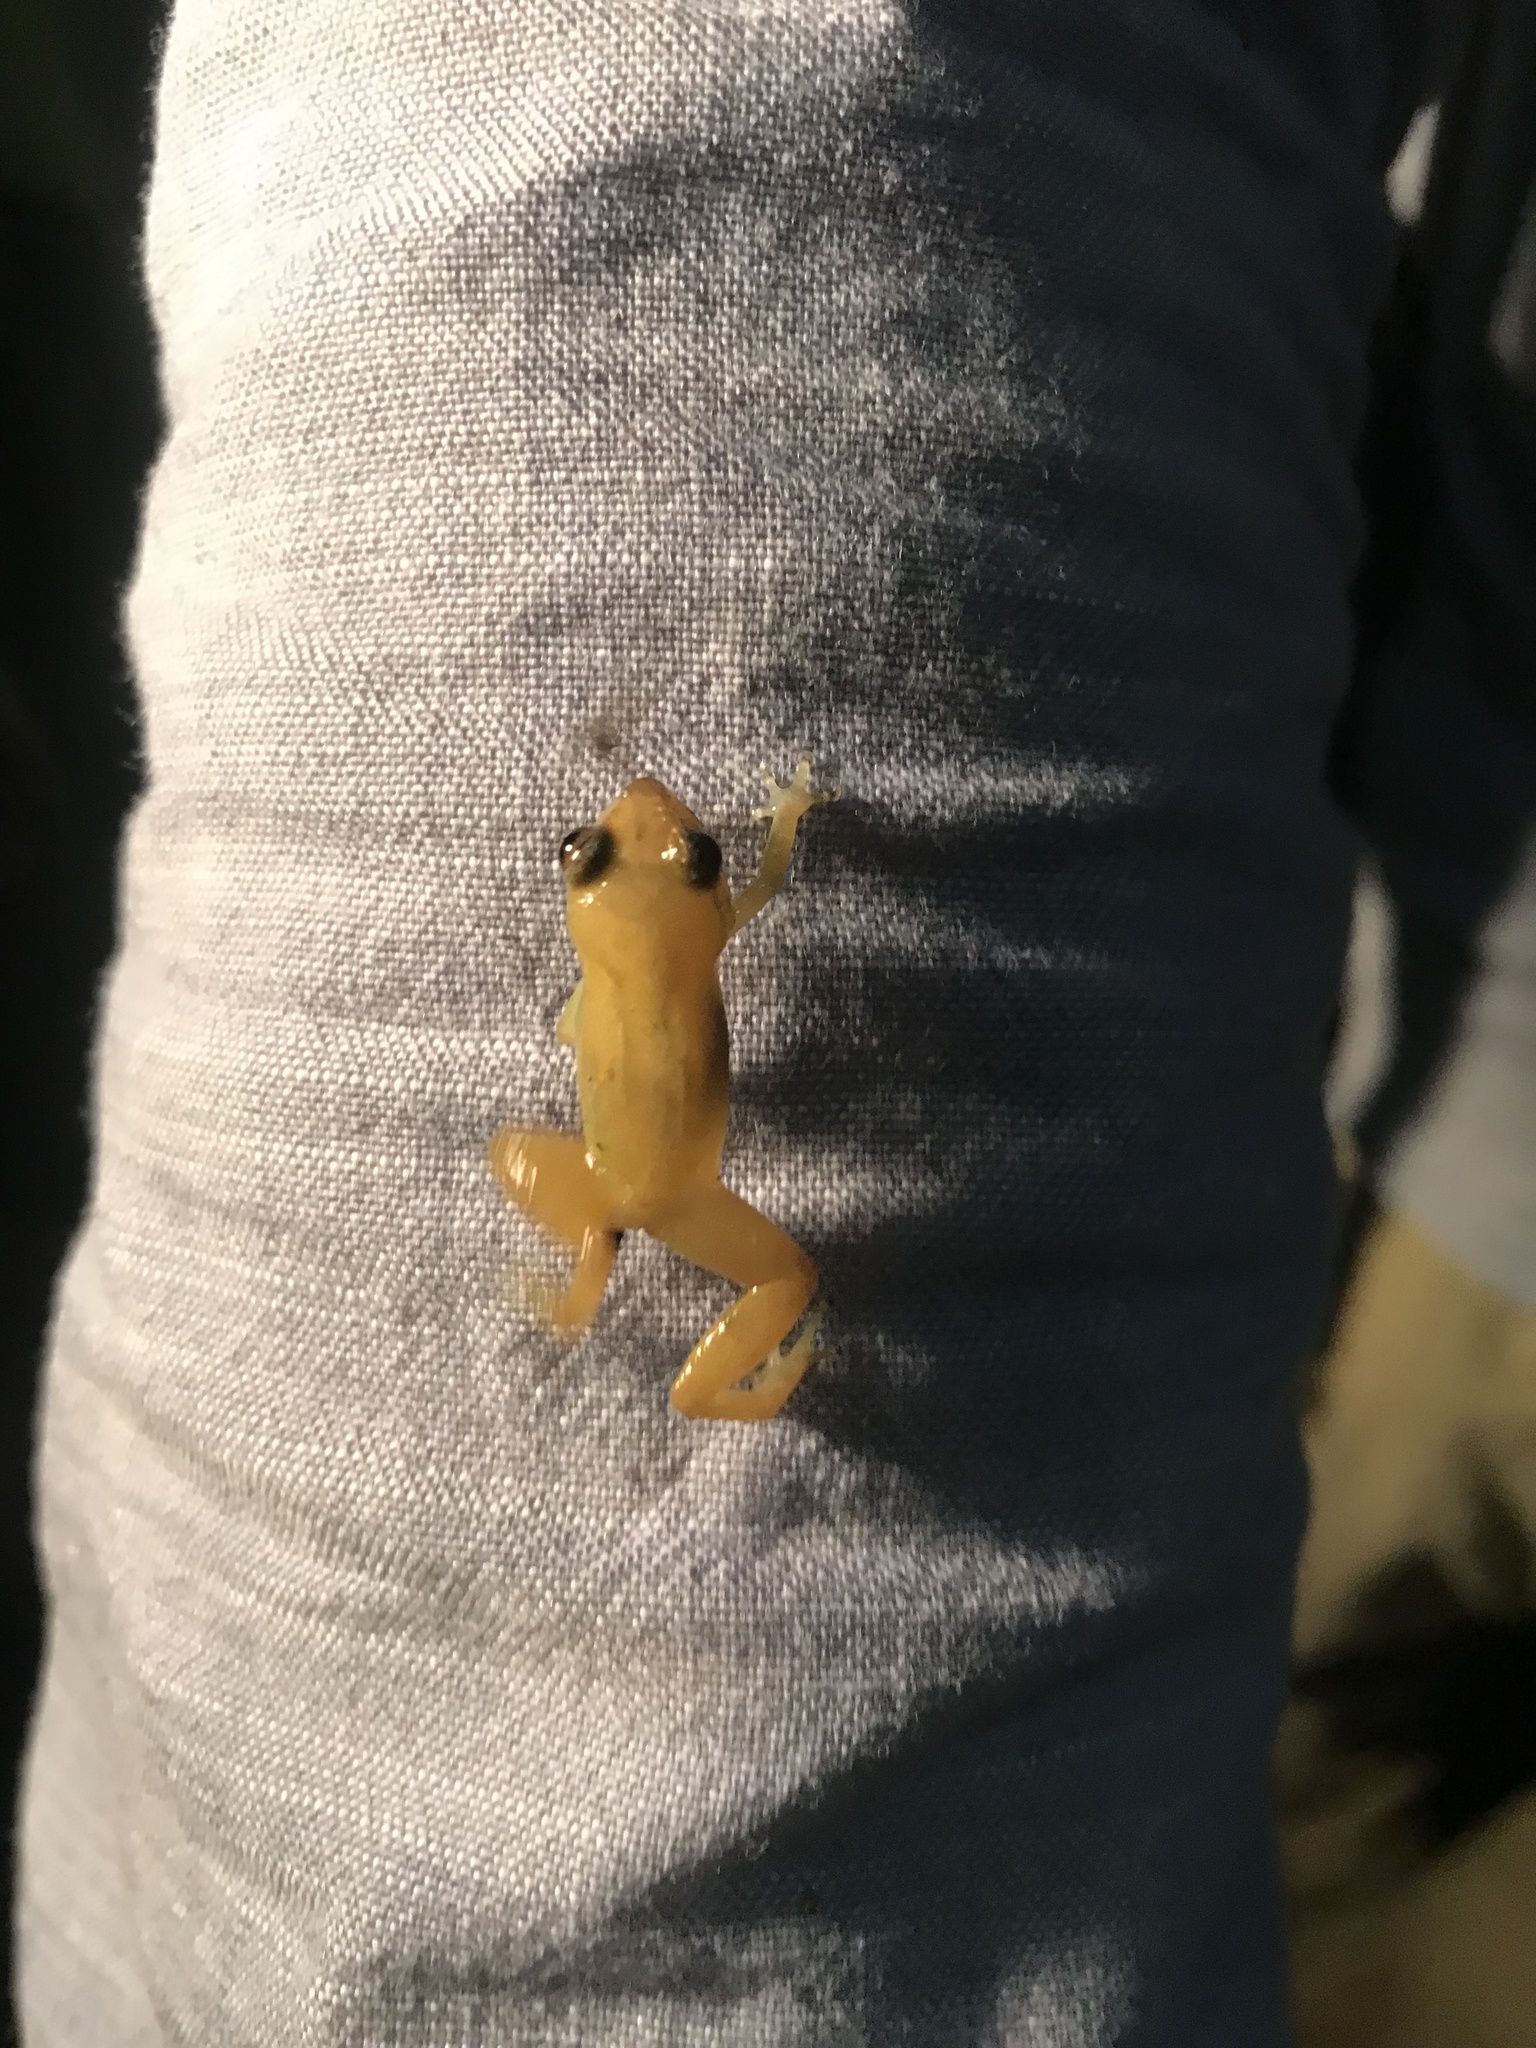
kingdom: Animalia
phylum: Chordata
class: Amphibia
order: Anura
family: Eleutherodactylidae
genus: Diasporus
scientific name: Diasporus diastema
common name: Caretta robber frog
